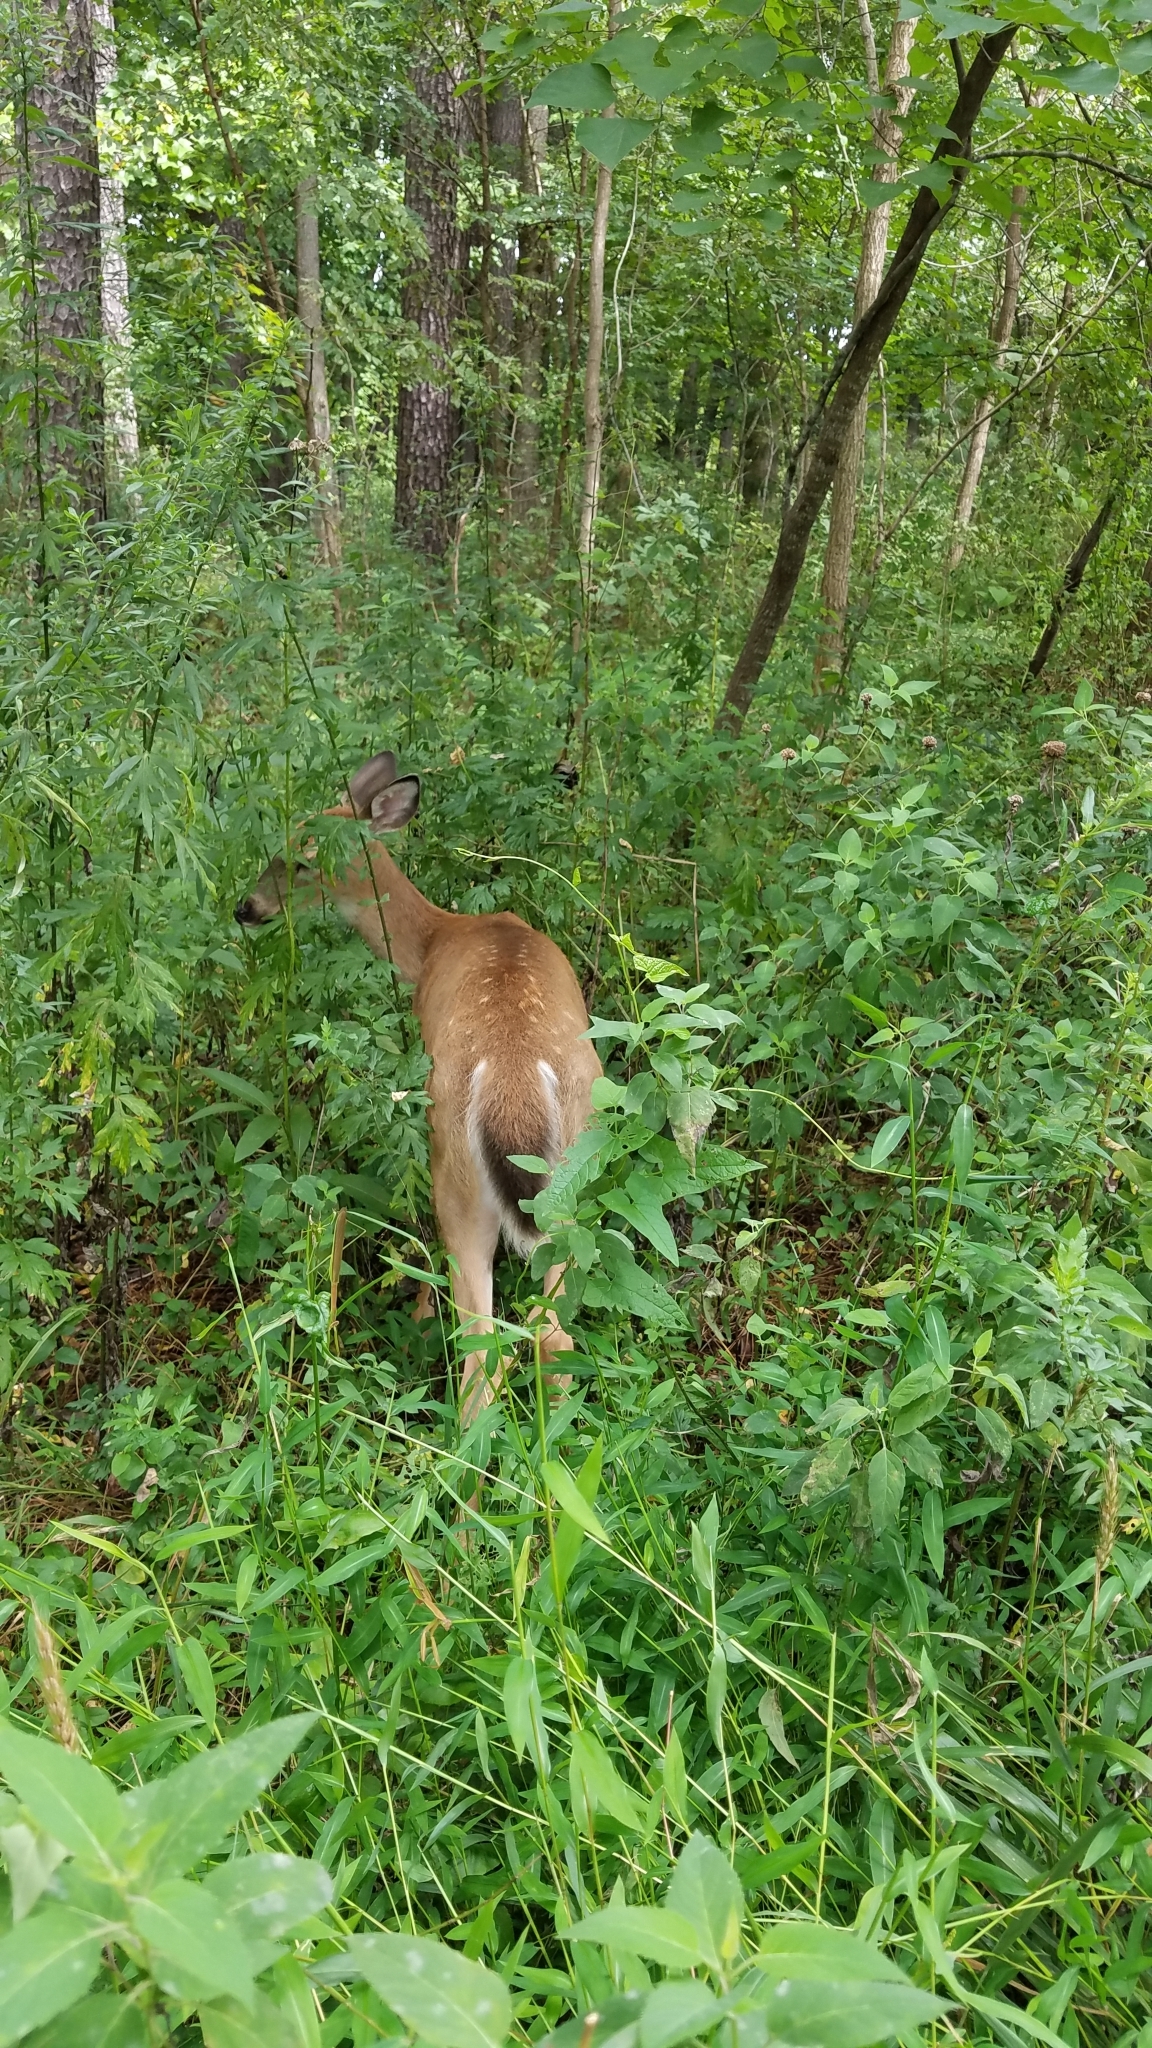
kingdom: Animalia
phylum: Chordata
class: Mammalia
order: Artiodactyla
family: Cervidae
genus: Odocoileus
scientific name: Odocoileus virginianus
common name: White-tailed deer
